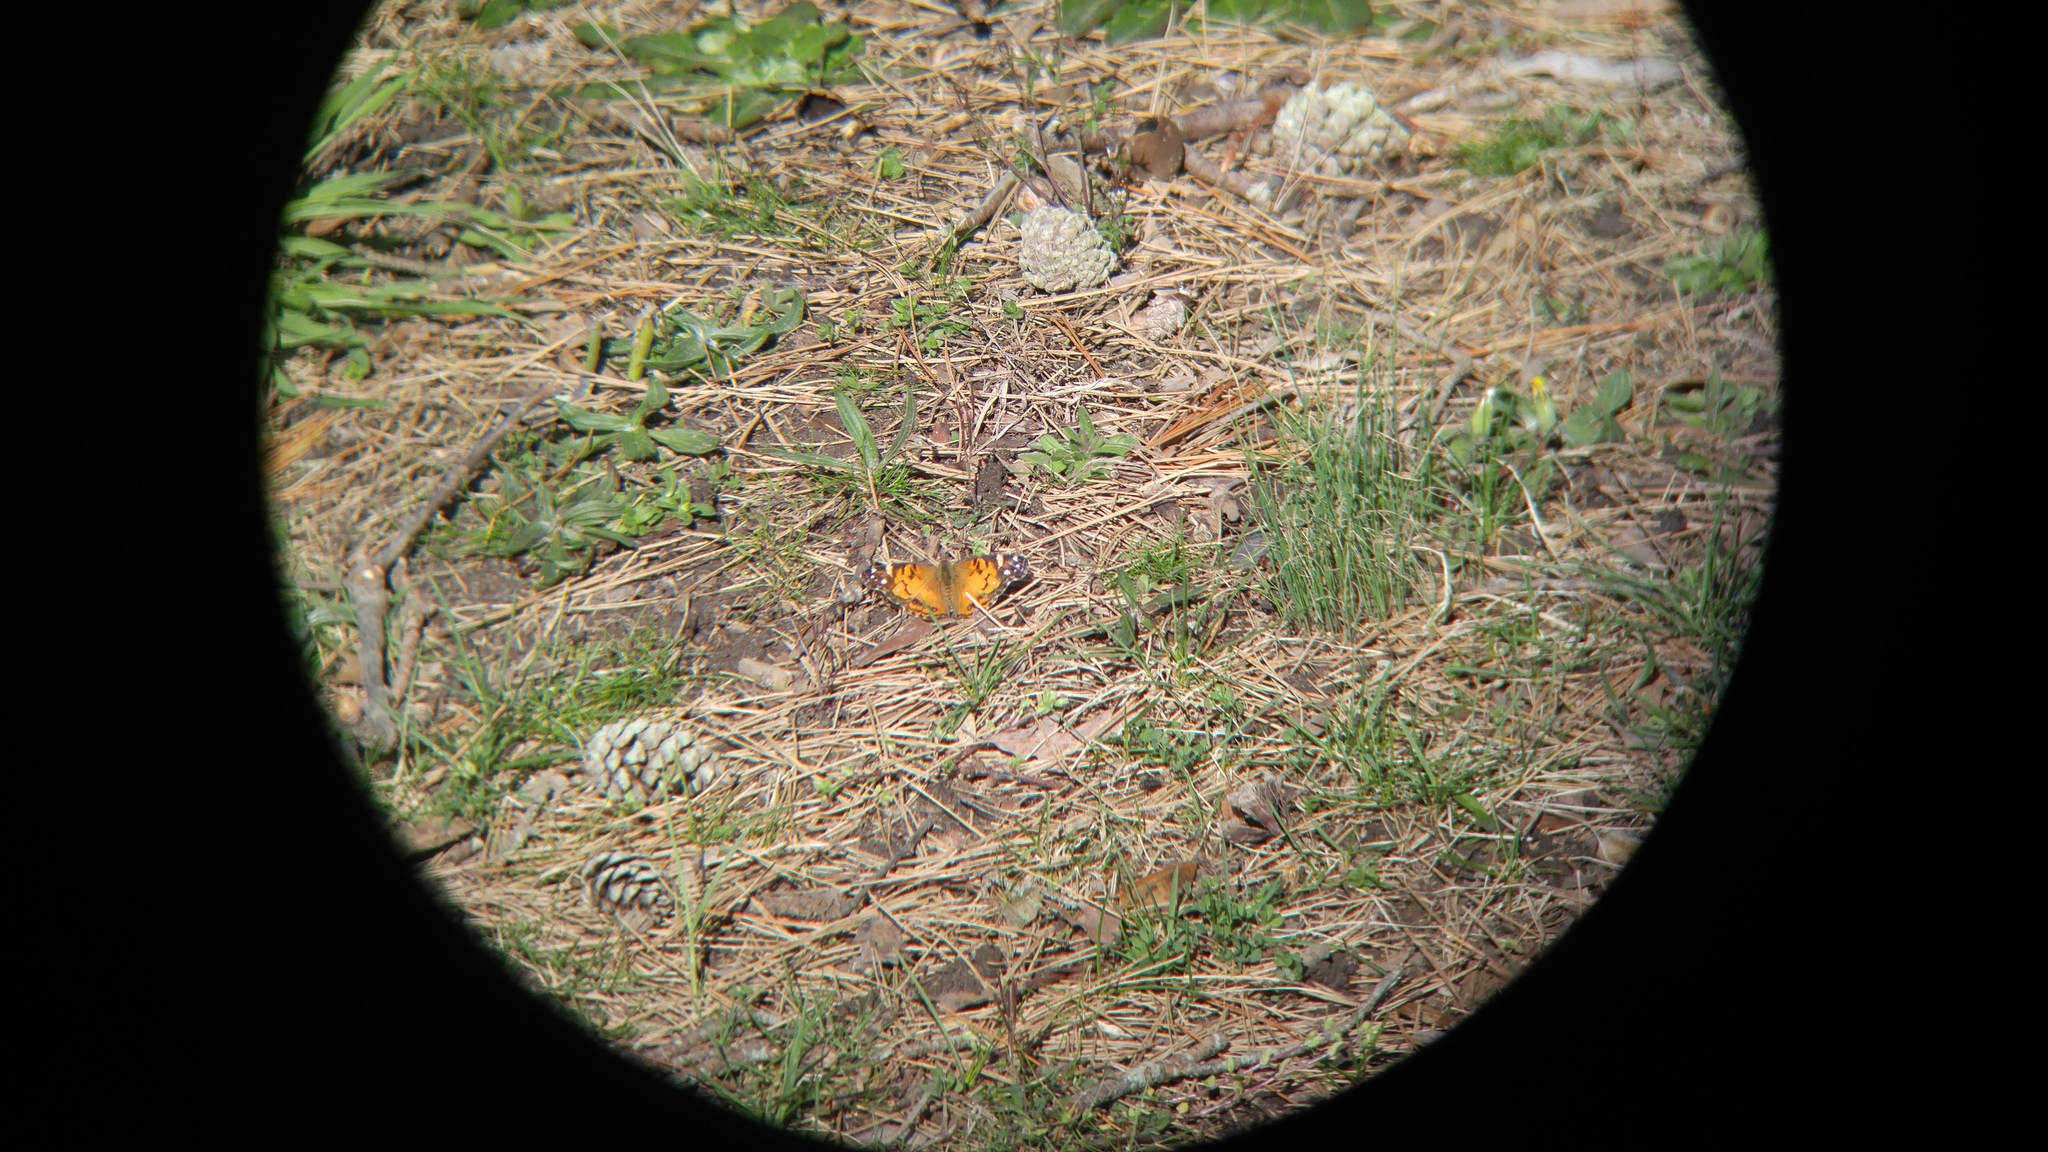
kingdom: Animalia
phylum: Arthropoda
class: Insecta
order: Lepidoptera
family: Nymphalidae
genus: Vanessa
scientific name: Vanessa virginiensis
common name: American lady
